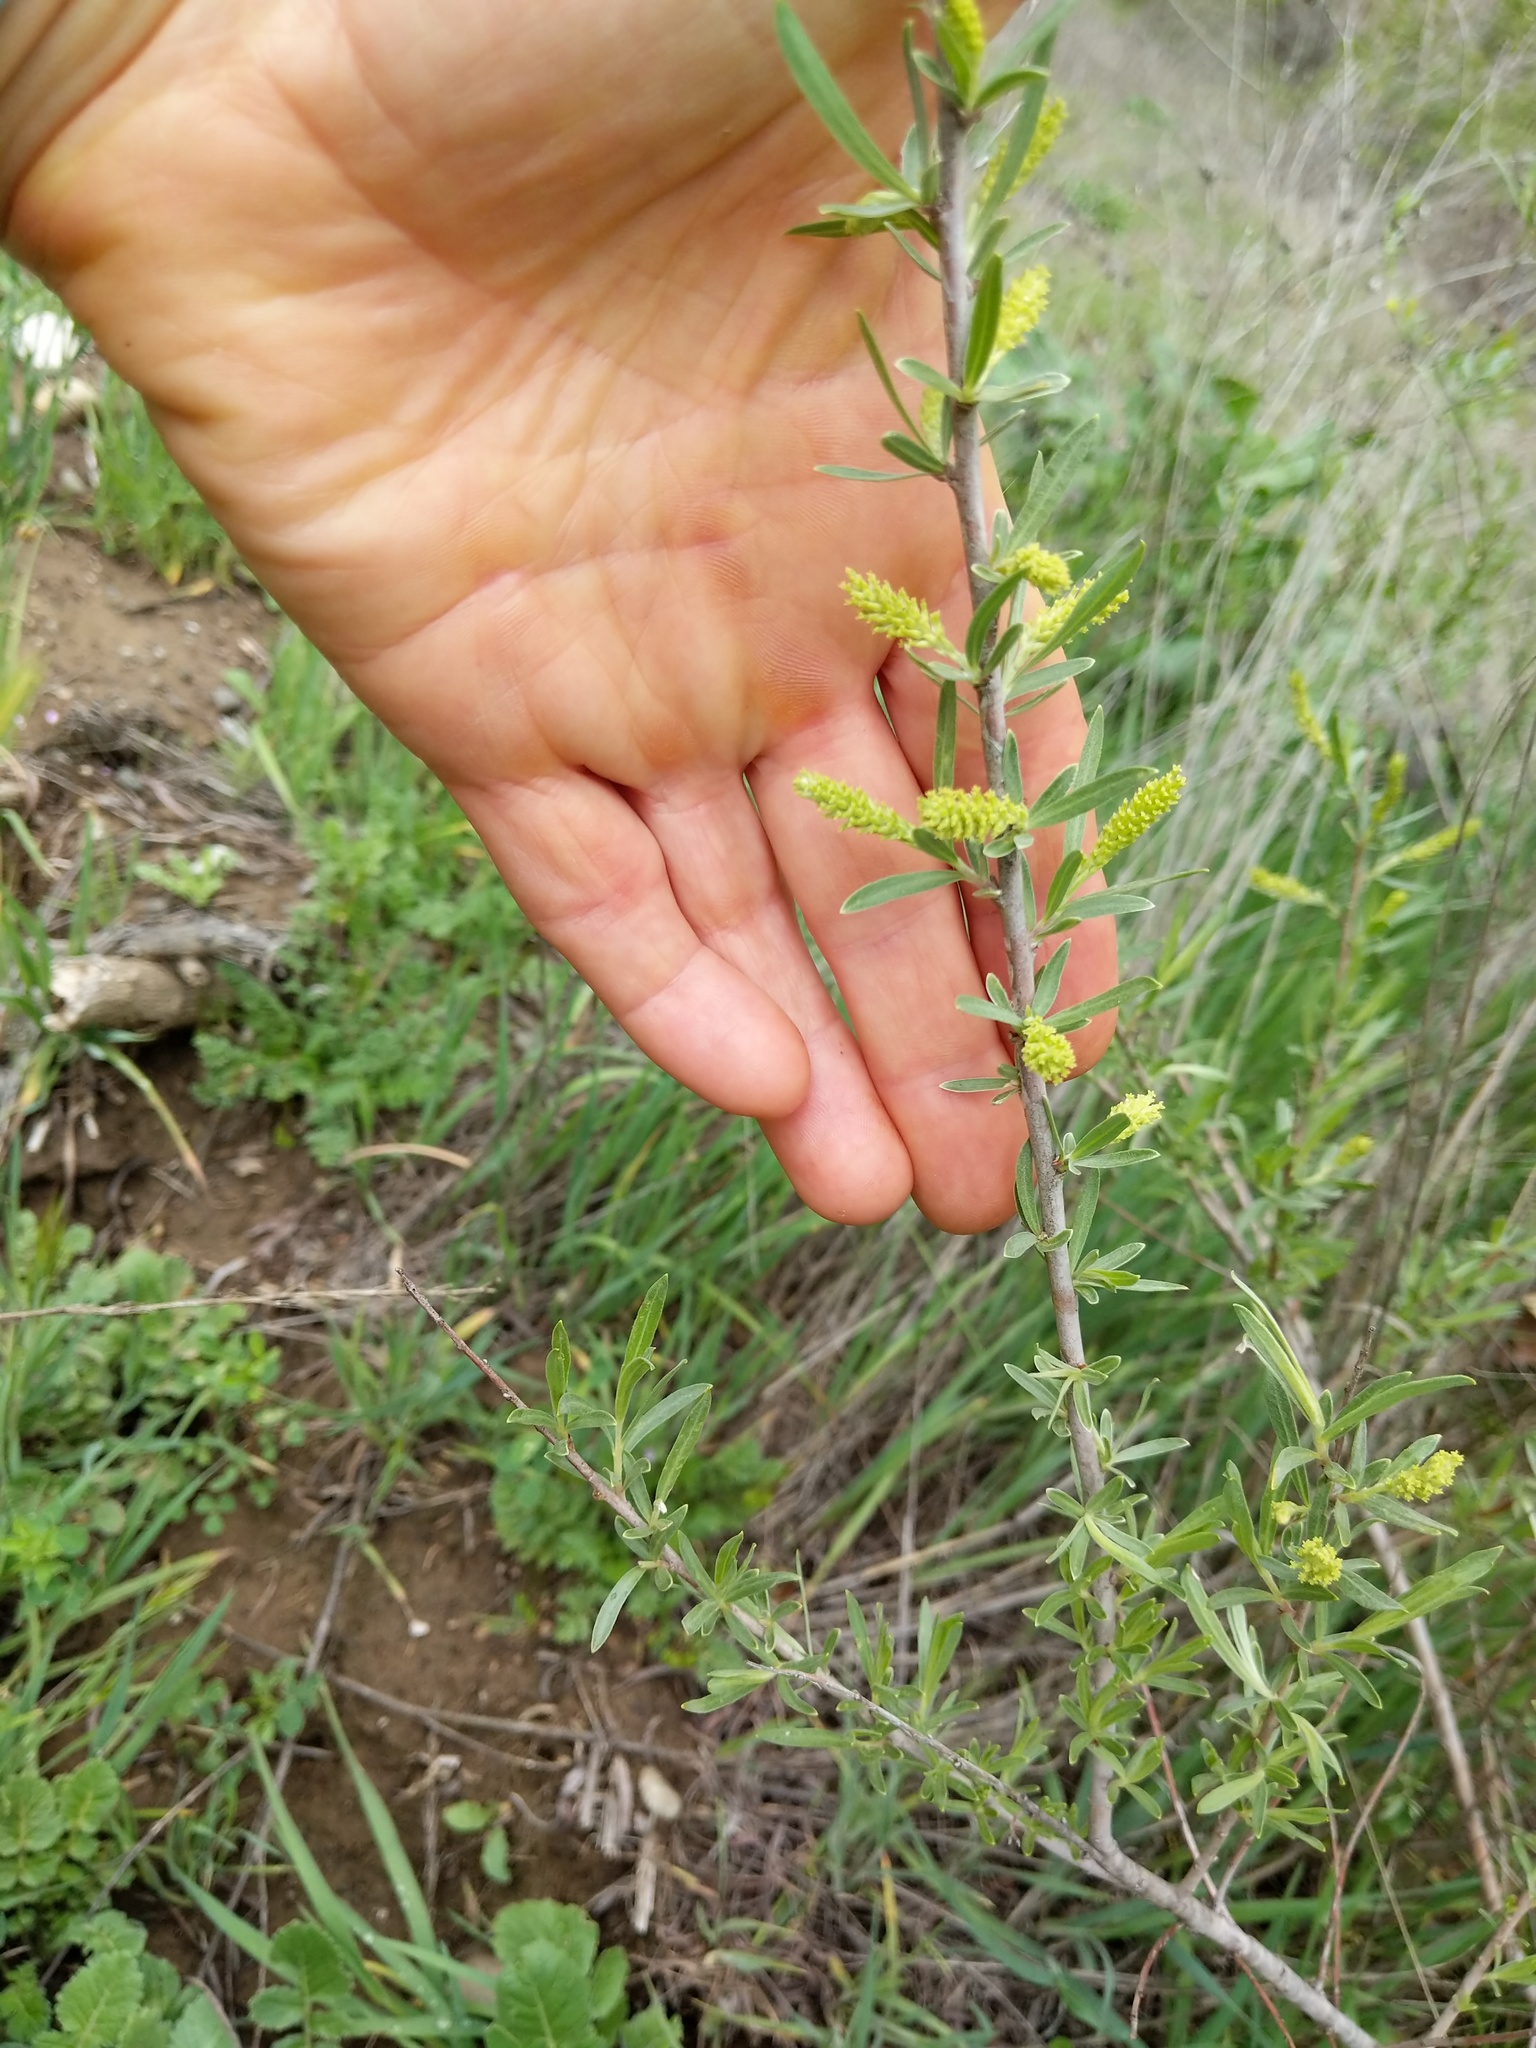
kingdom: Plantae
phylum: Tracheophyta
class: Magnoliopsida
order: Malpighiales
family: Salicaceae
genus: Salix
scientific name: Salix exigua
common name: Coyote willow
